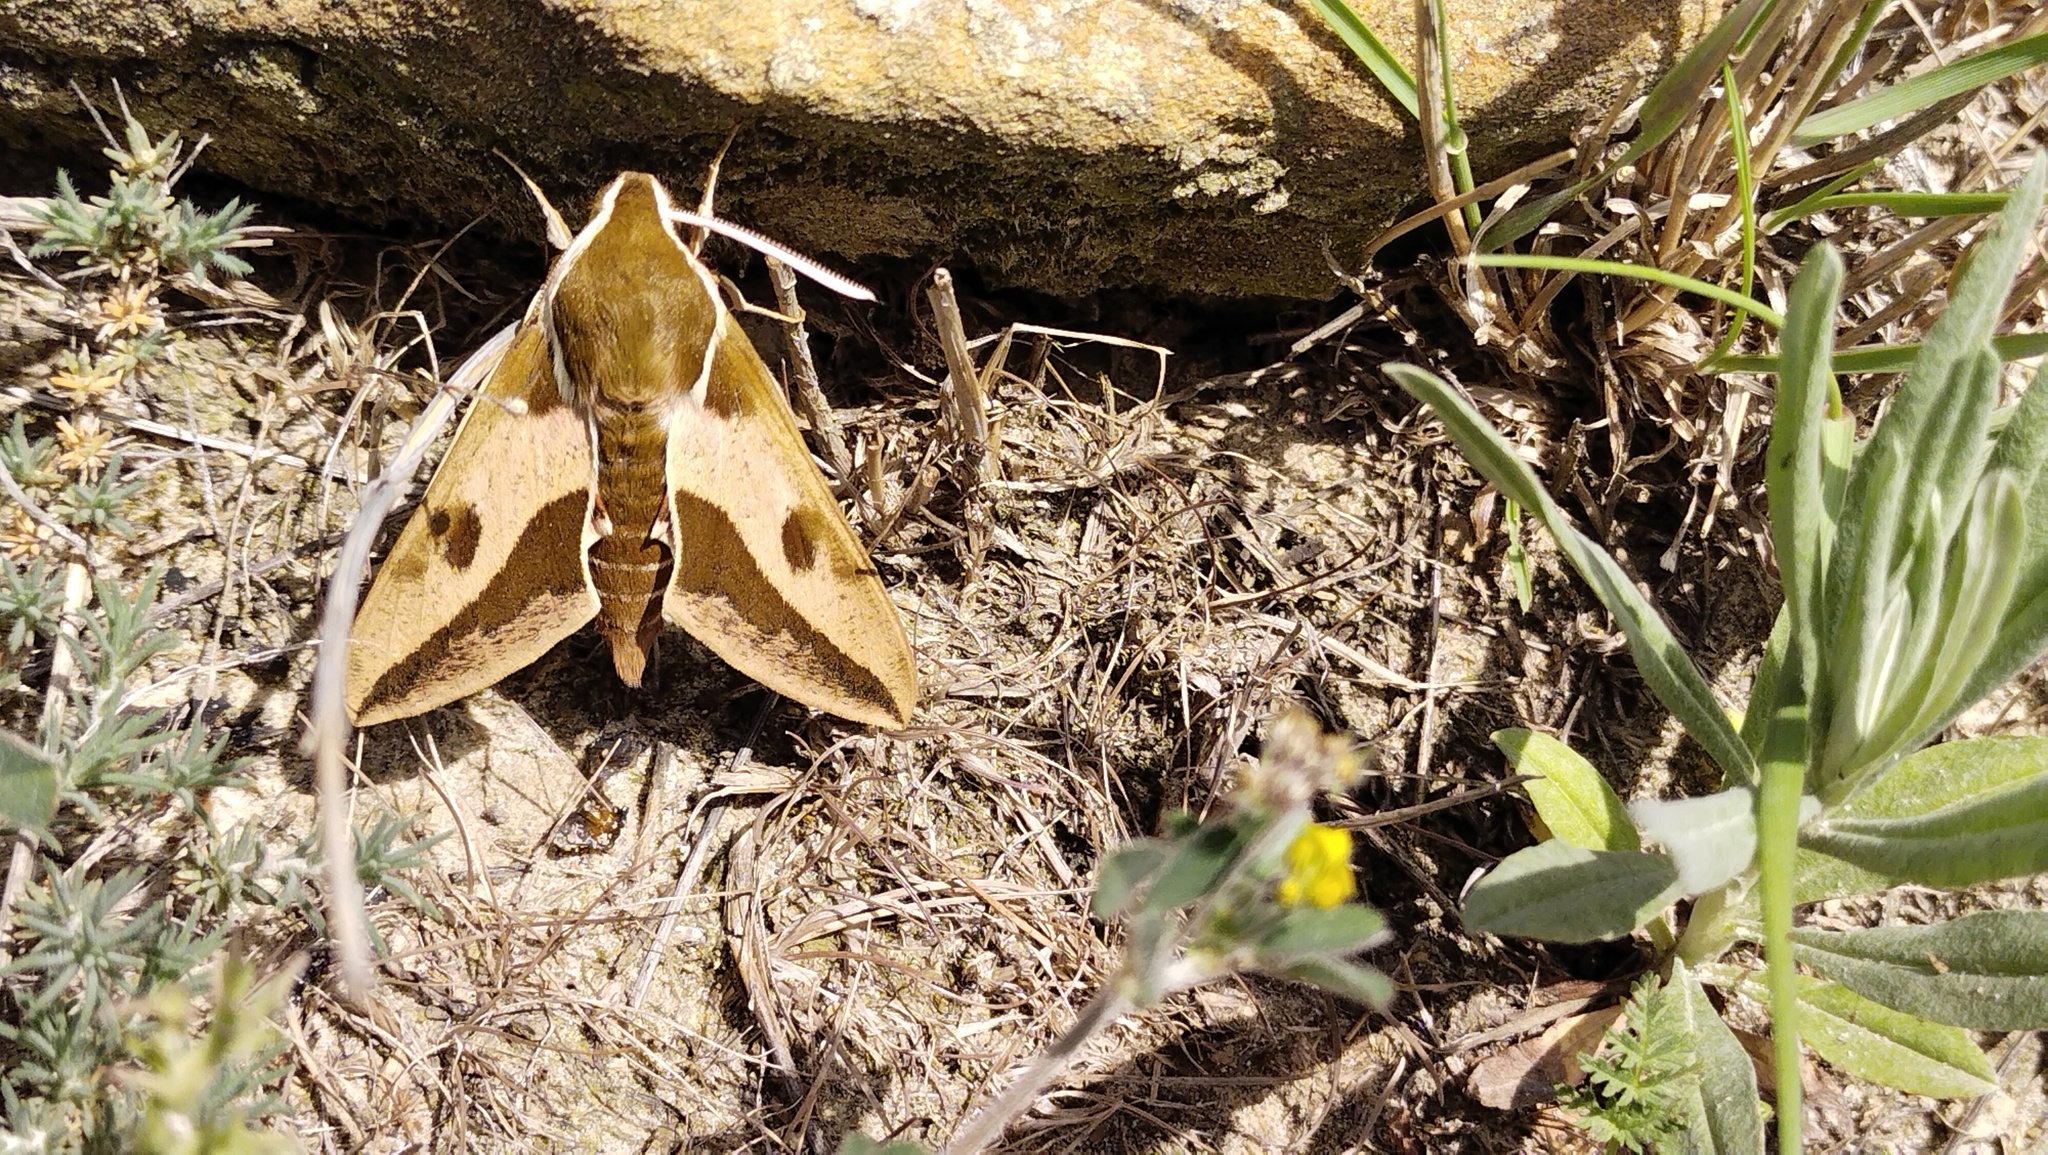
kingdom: Animalia
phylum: Arthropoda
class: Insecta
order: Lepidoptera
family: Sphingidae
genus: Hyles
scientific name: Hyles euphorbiae
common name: Spurge hawk-moth
